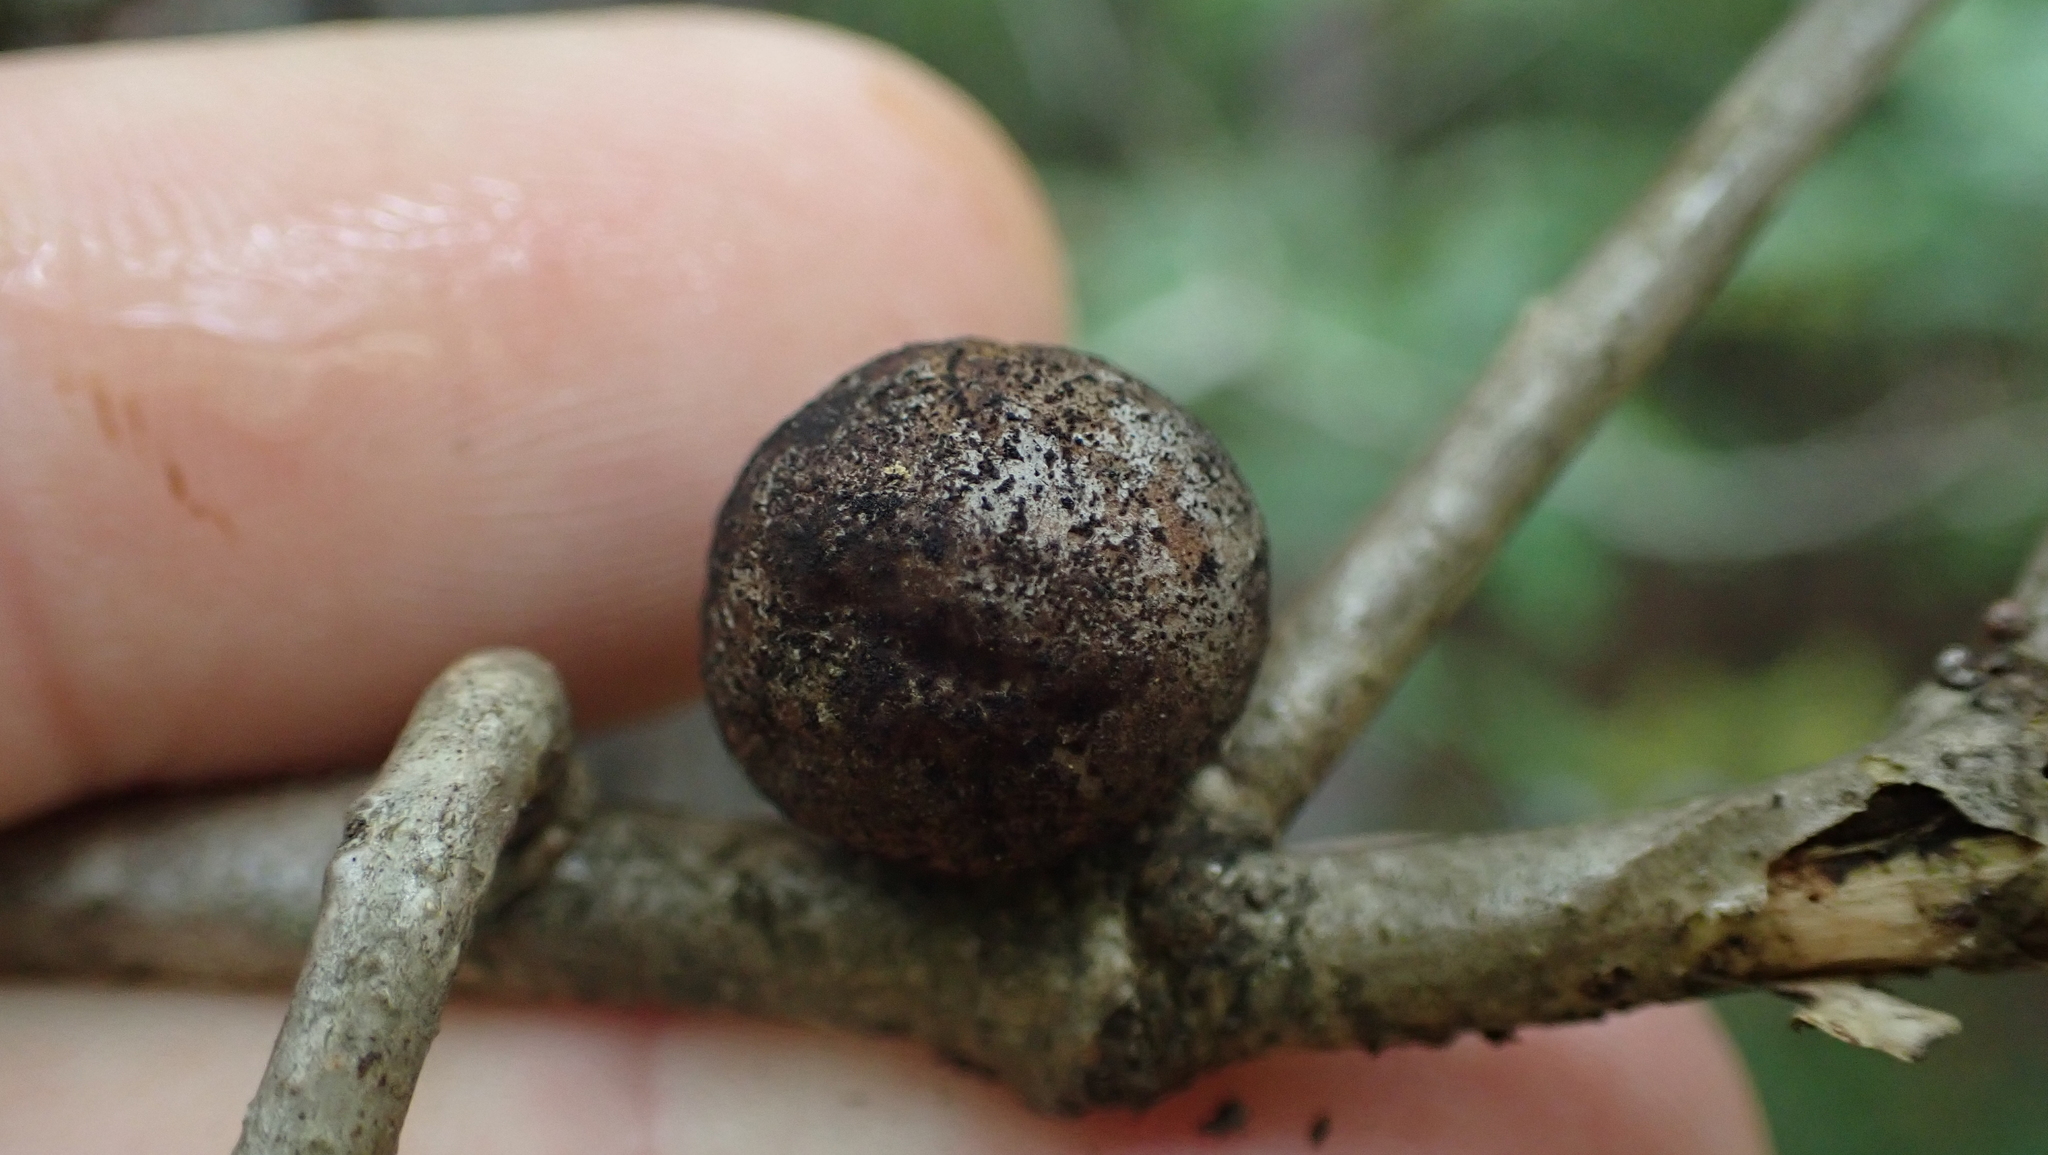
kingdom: Animalia
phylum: Arthropoda
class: Insecta
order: Hymenoptera
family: Cynipidae
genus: Disholcaspis
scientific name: Disholcaspis quercusglobulus
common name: Round bullet gall wasp
